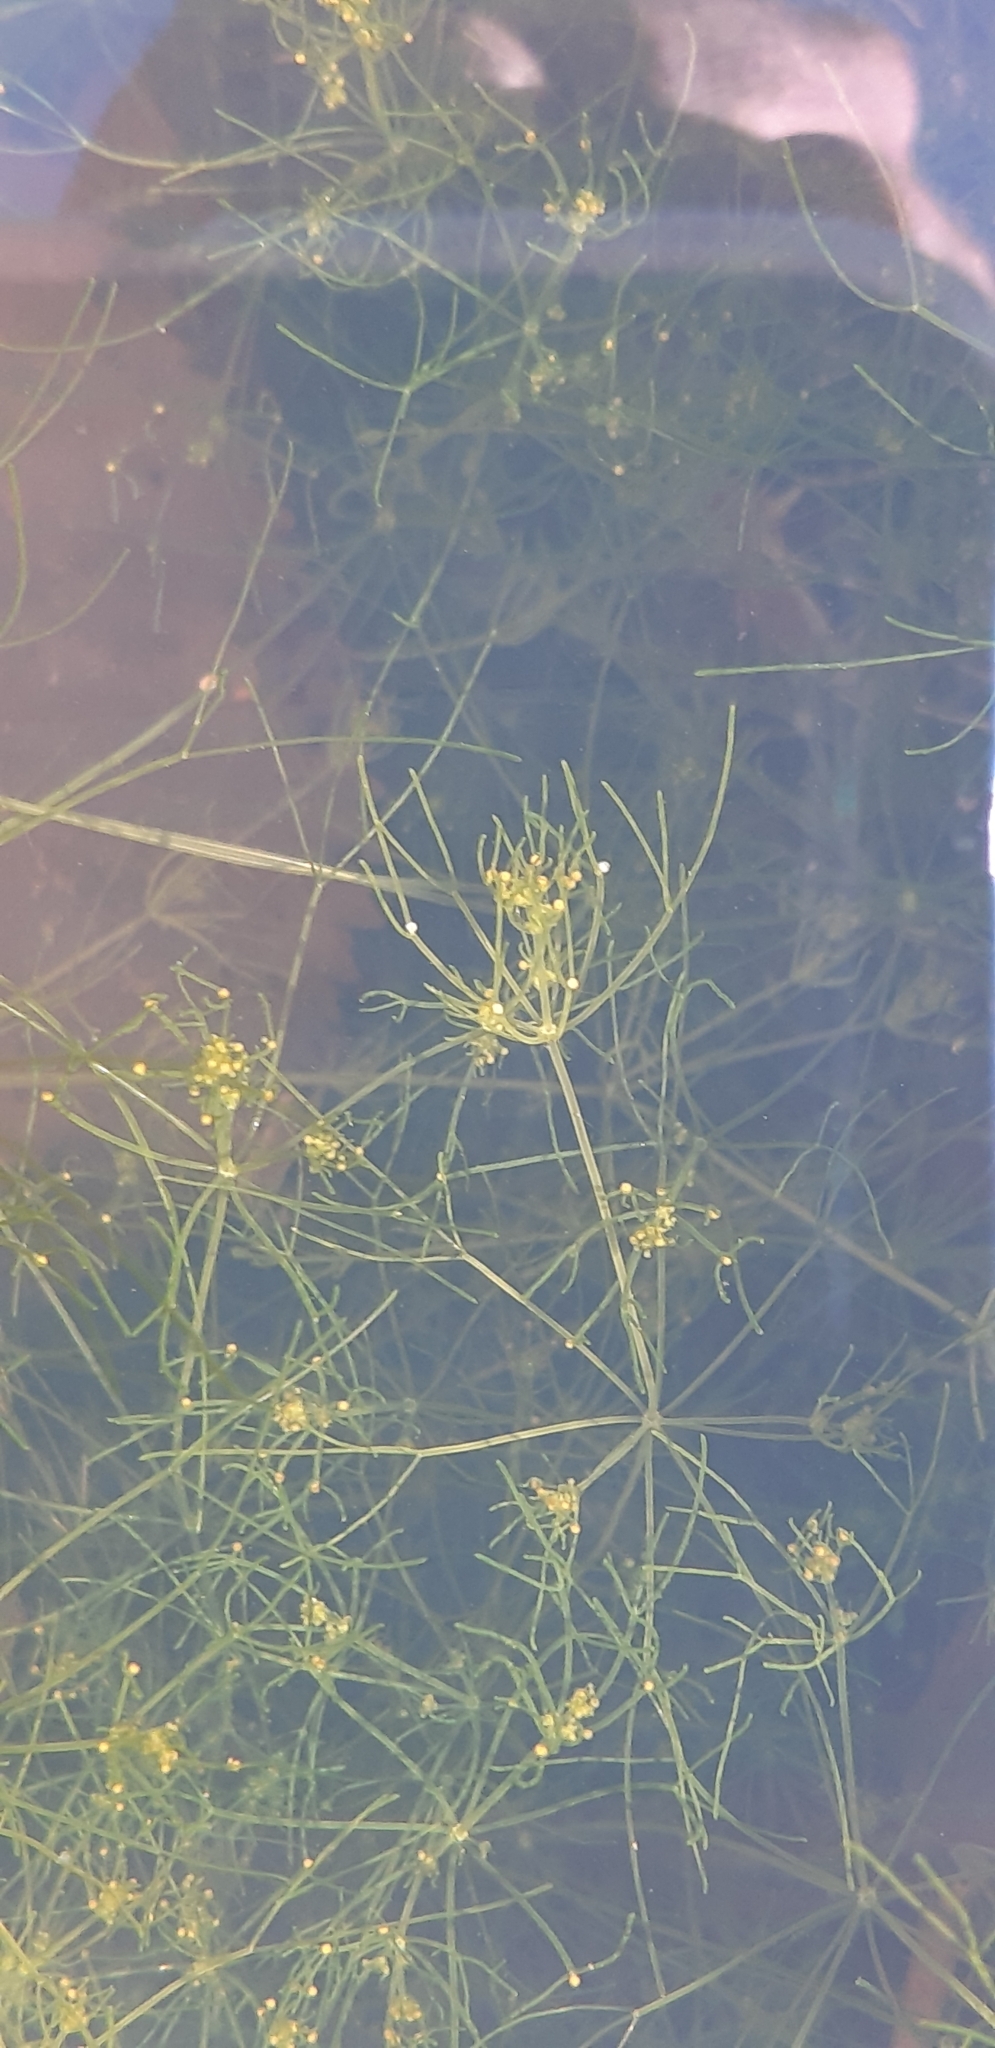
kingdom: Plantae
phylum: Charophyta
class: Charophyceae
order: Charales
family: Characeae
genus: Nitella
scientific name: Nitella opaca
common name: Dark stonewort
